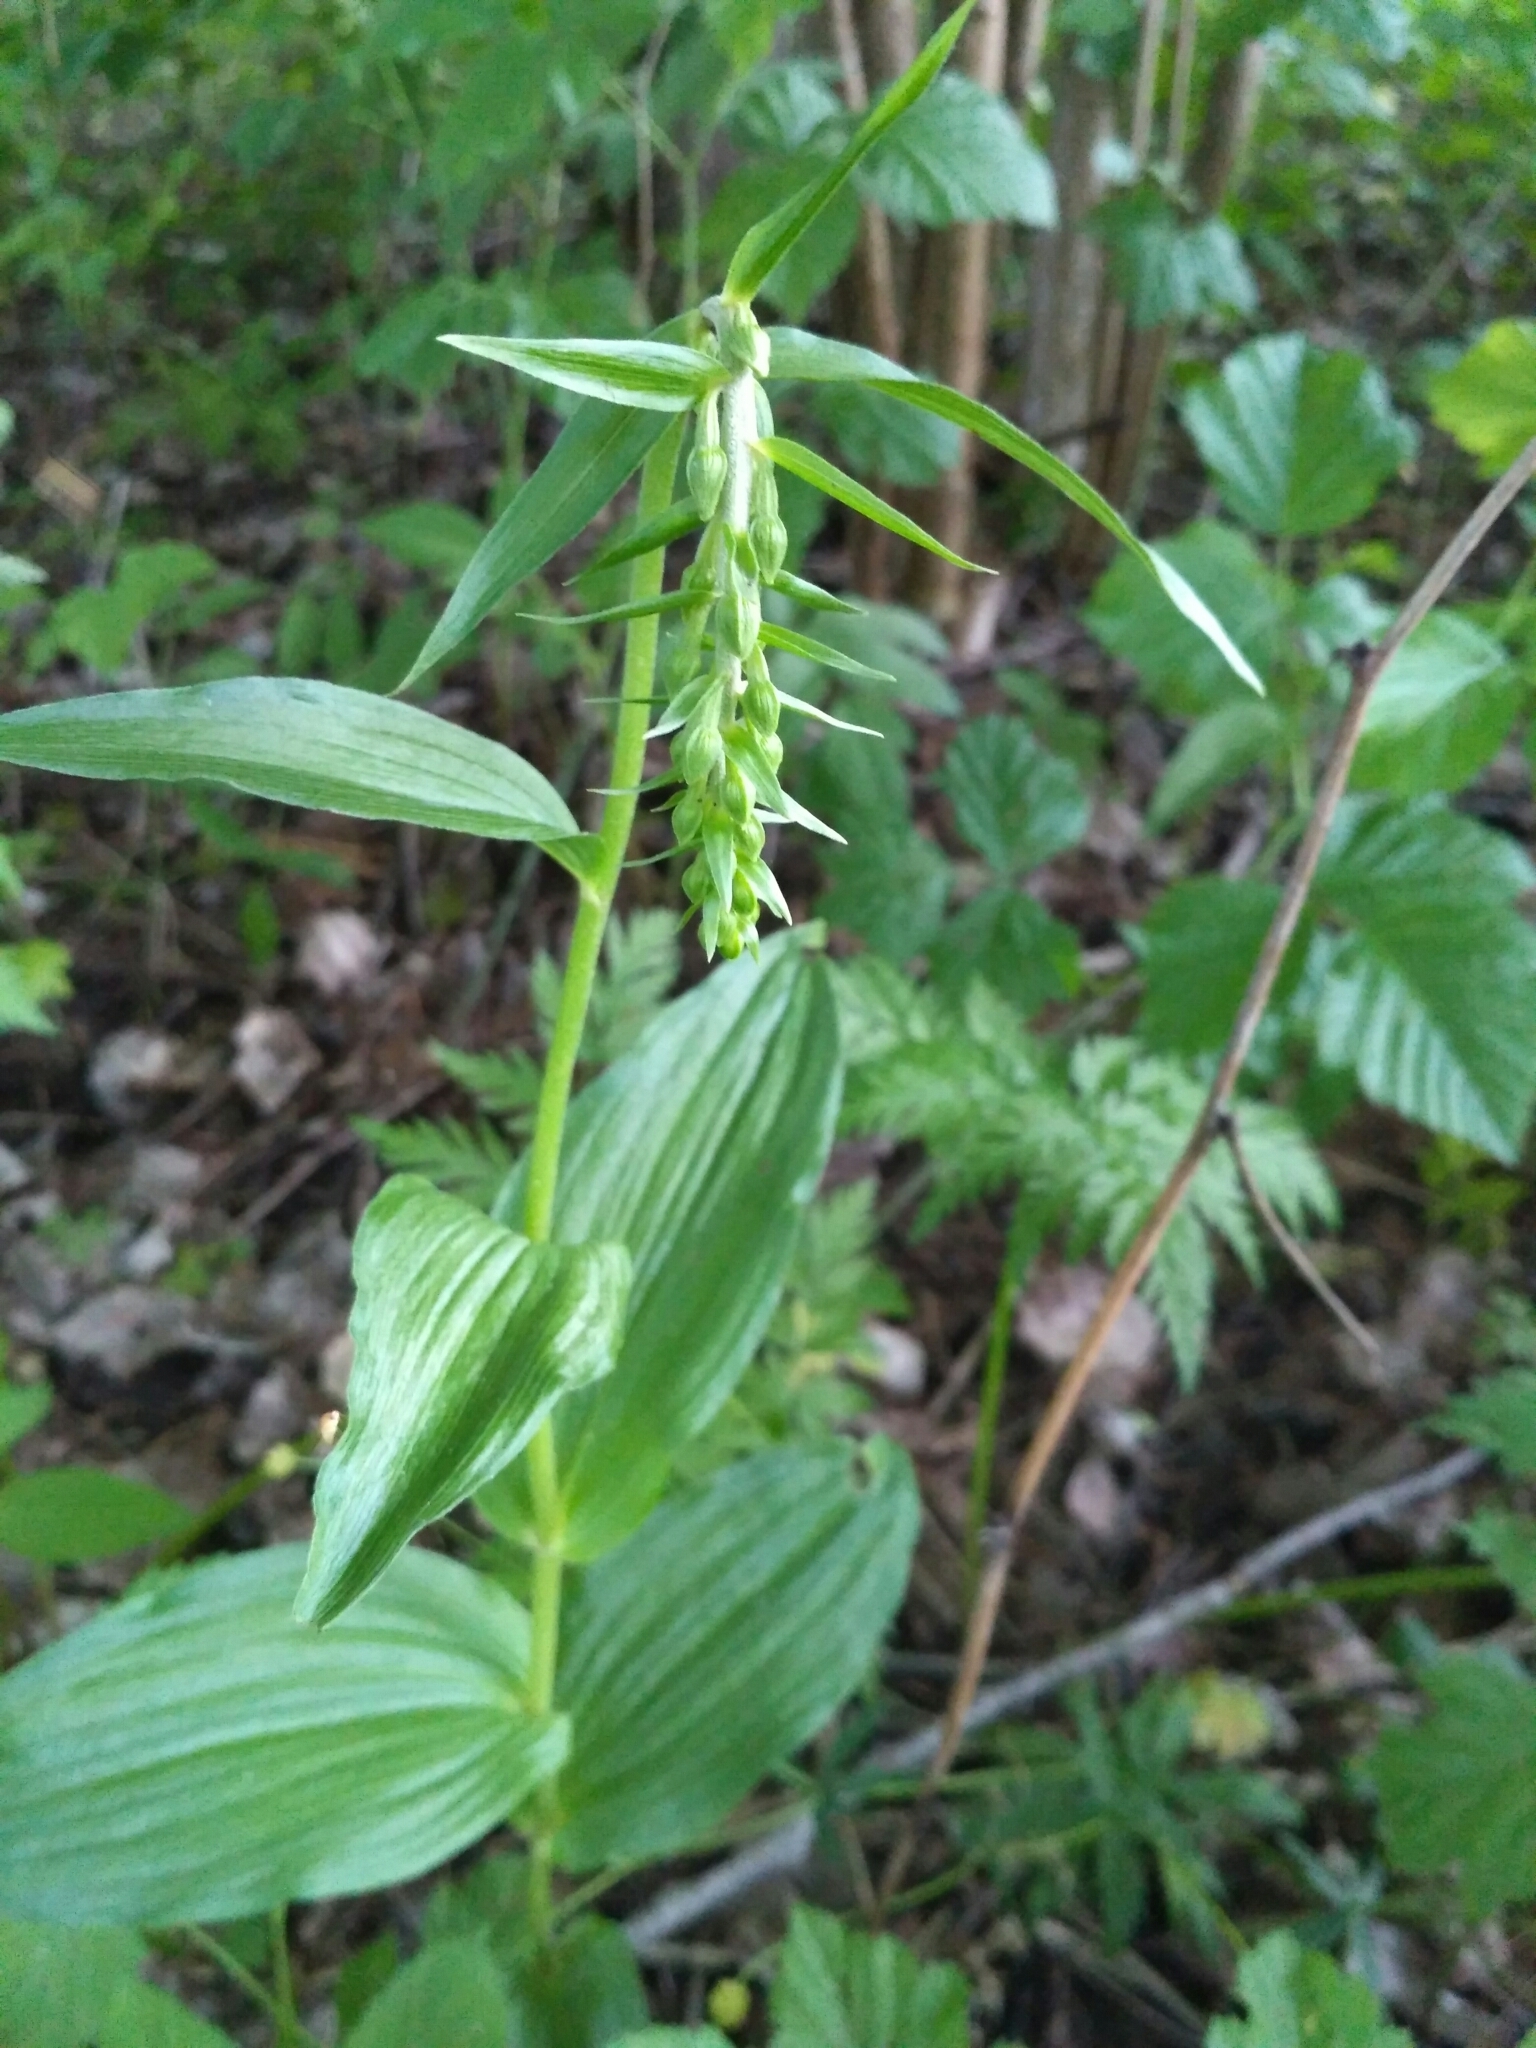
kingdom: Plantae
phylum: Tracheophyta
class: Liliopsida
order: Asparagales
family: Orchidaceae
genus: Epipactis
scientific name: Epipactis helleborine
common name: Broad-leaved helleborine
